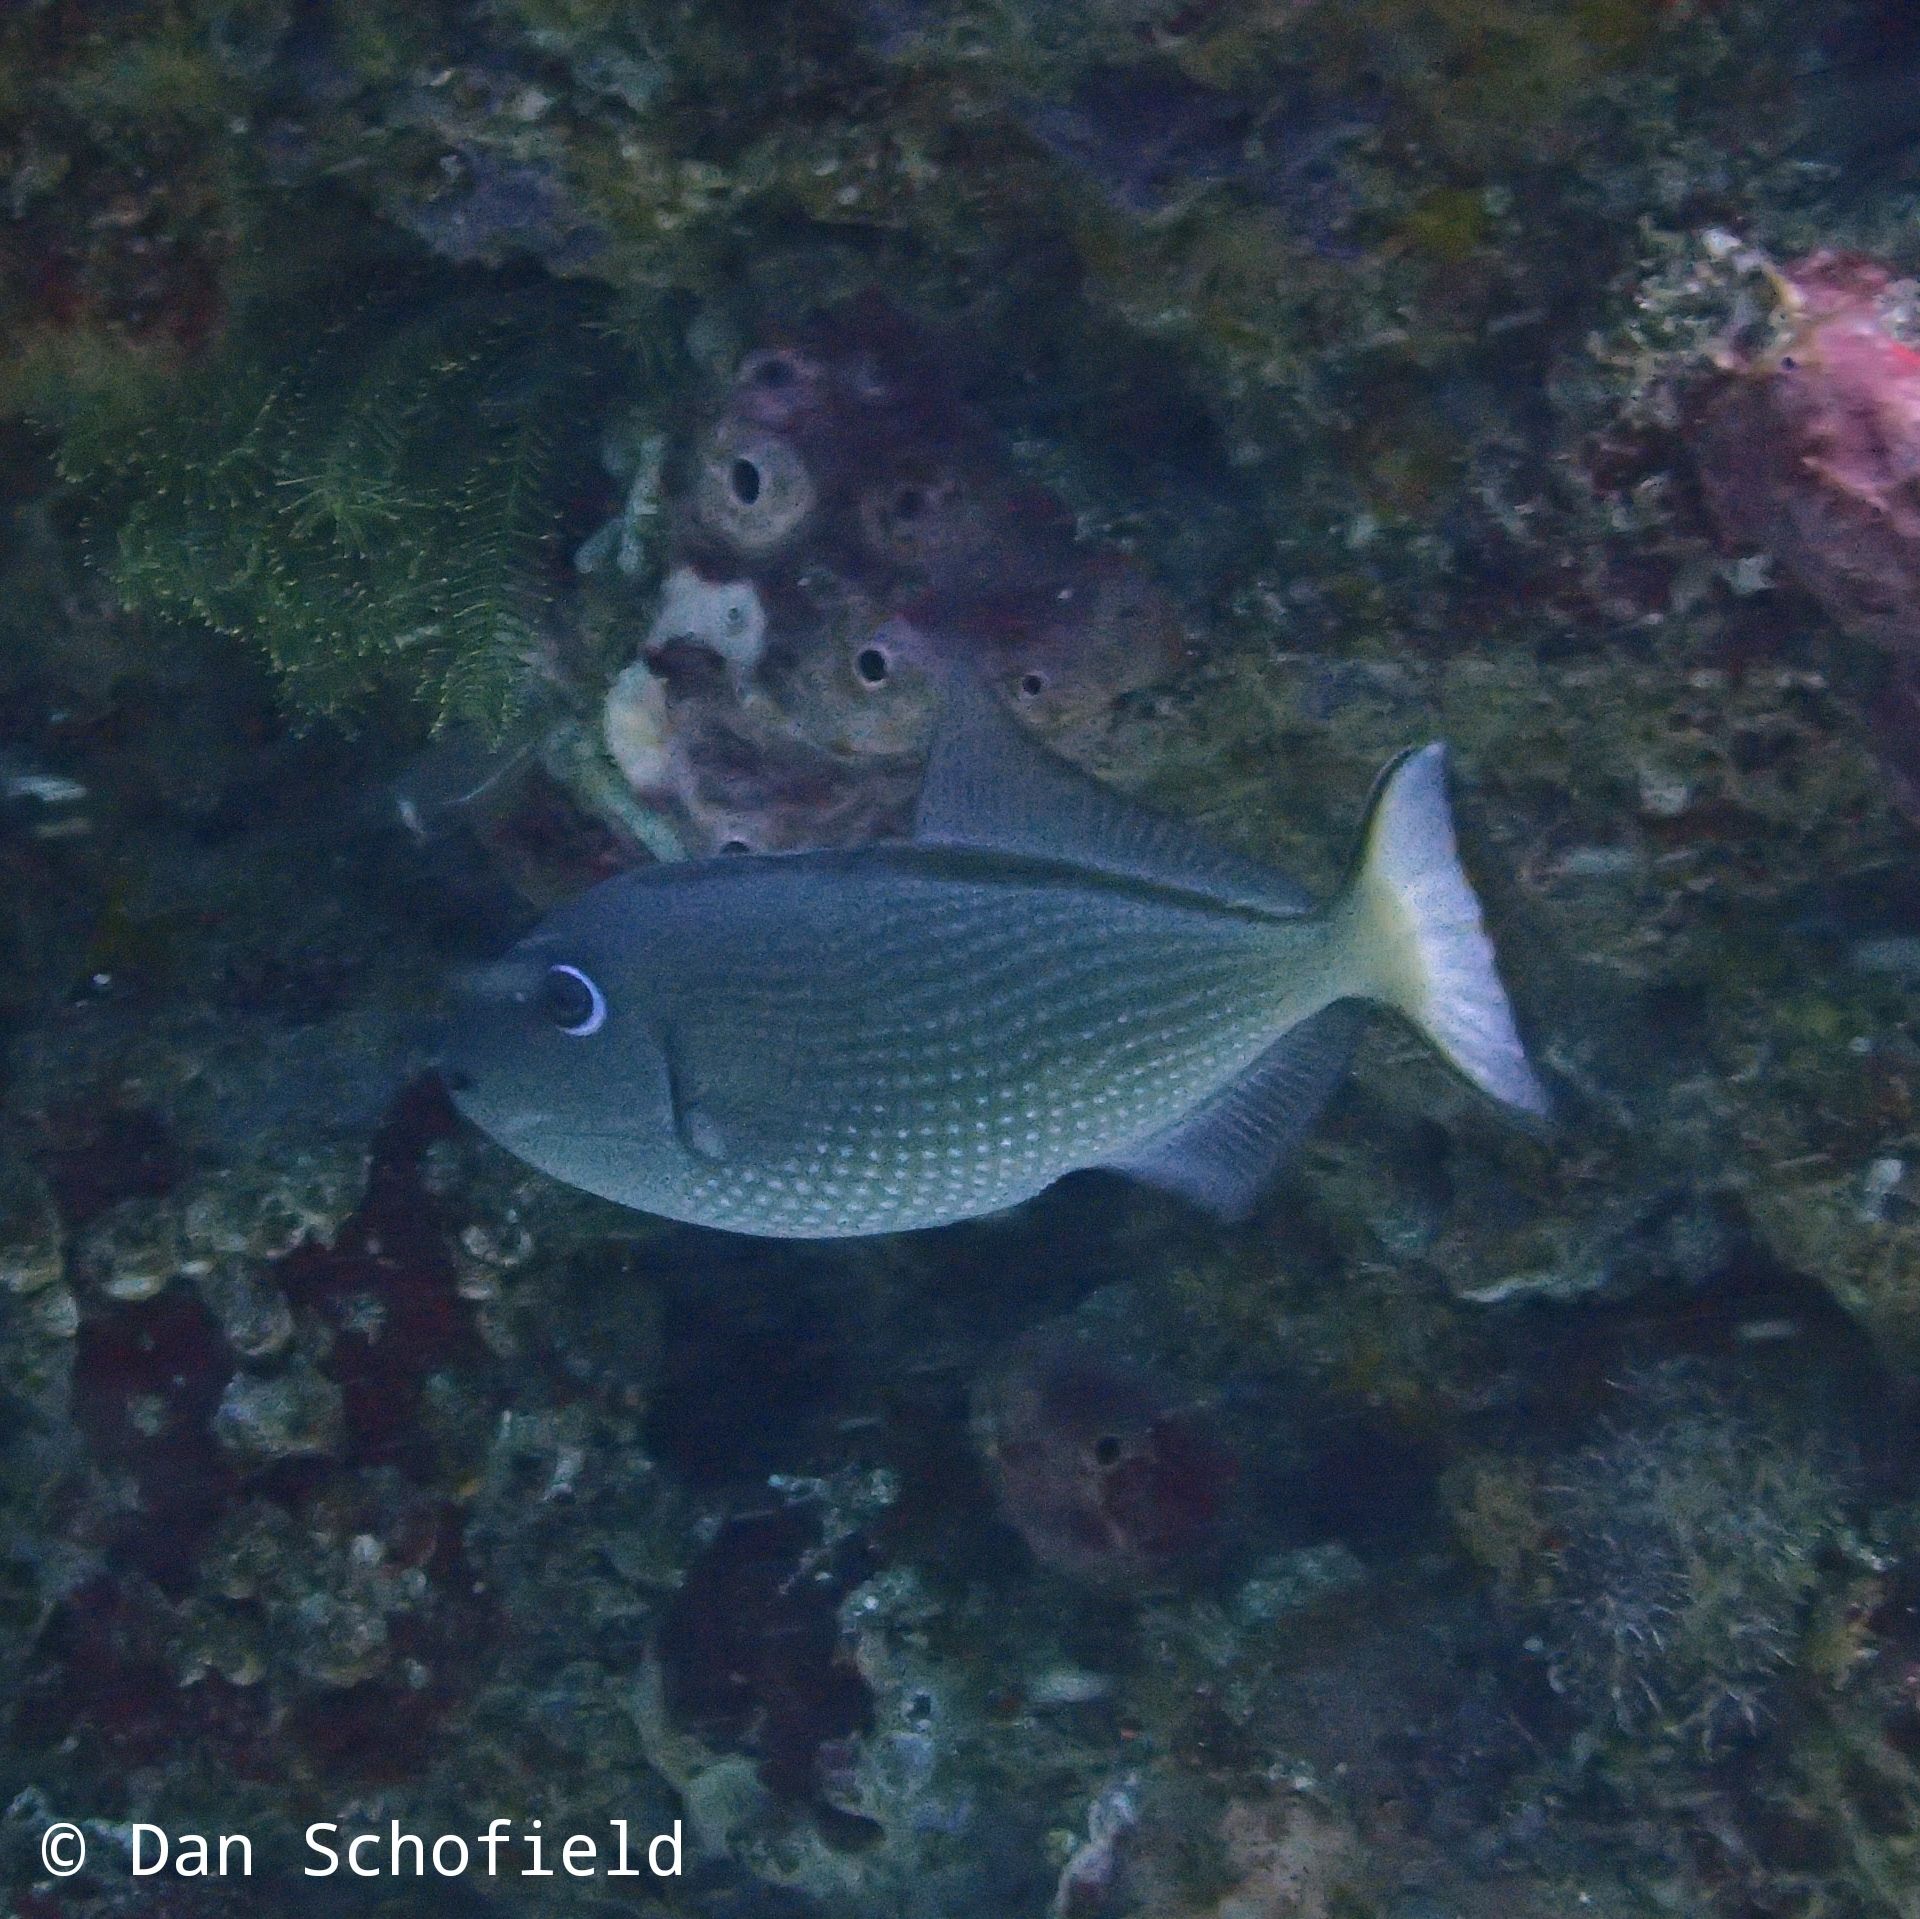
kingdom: Animalia
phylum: Chordata
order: Tetraodontiformes
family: Balistidae
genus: Xanthichthys
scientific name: Xanthichthys auromarginatus
